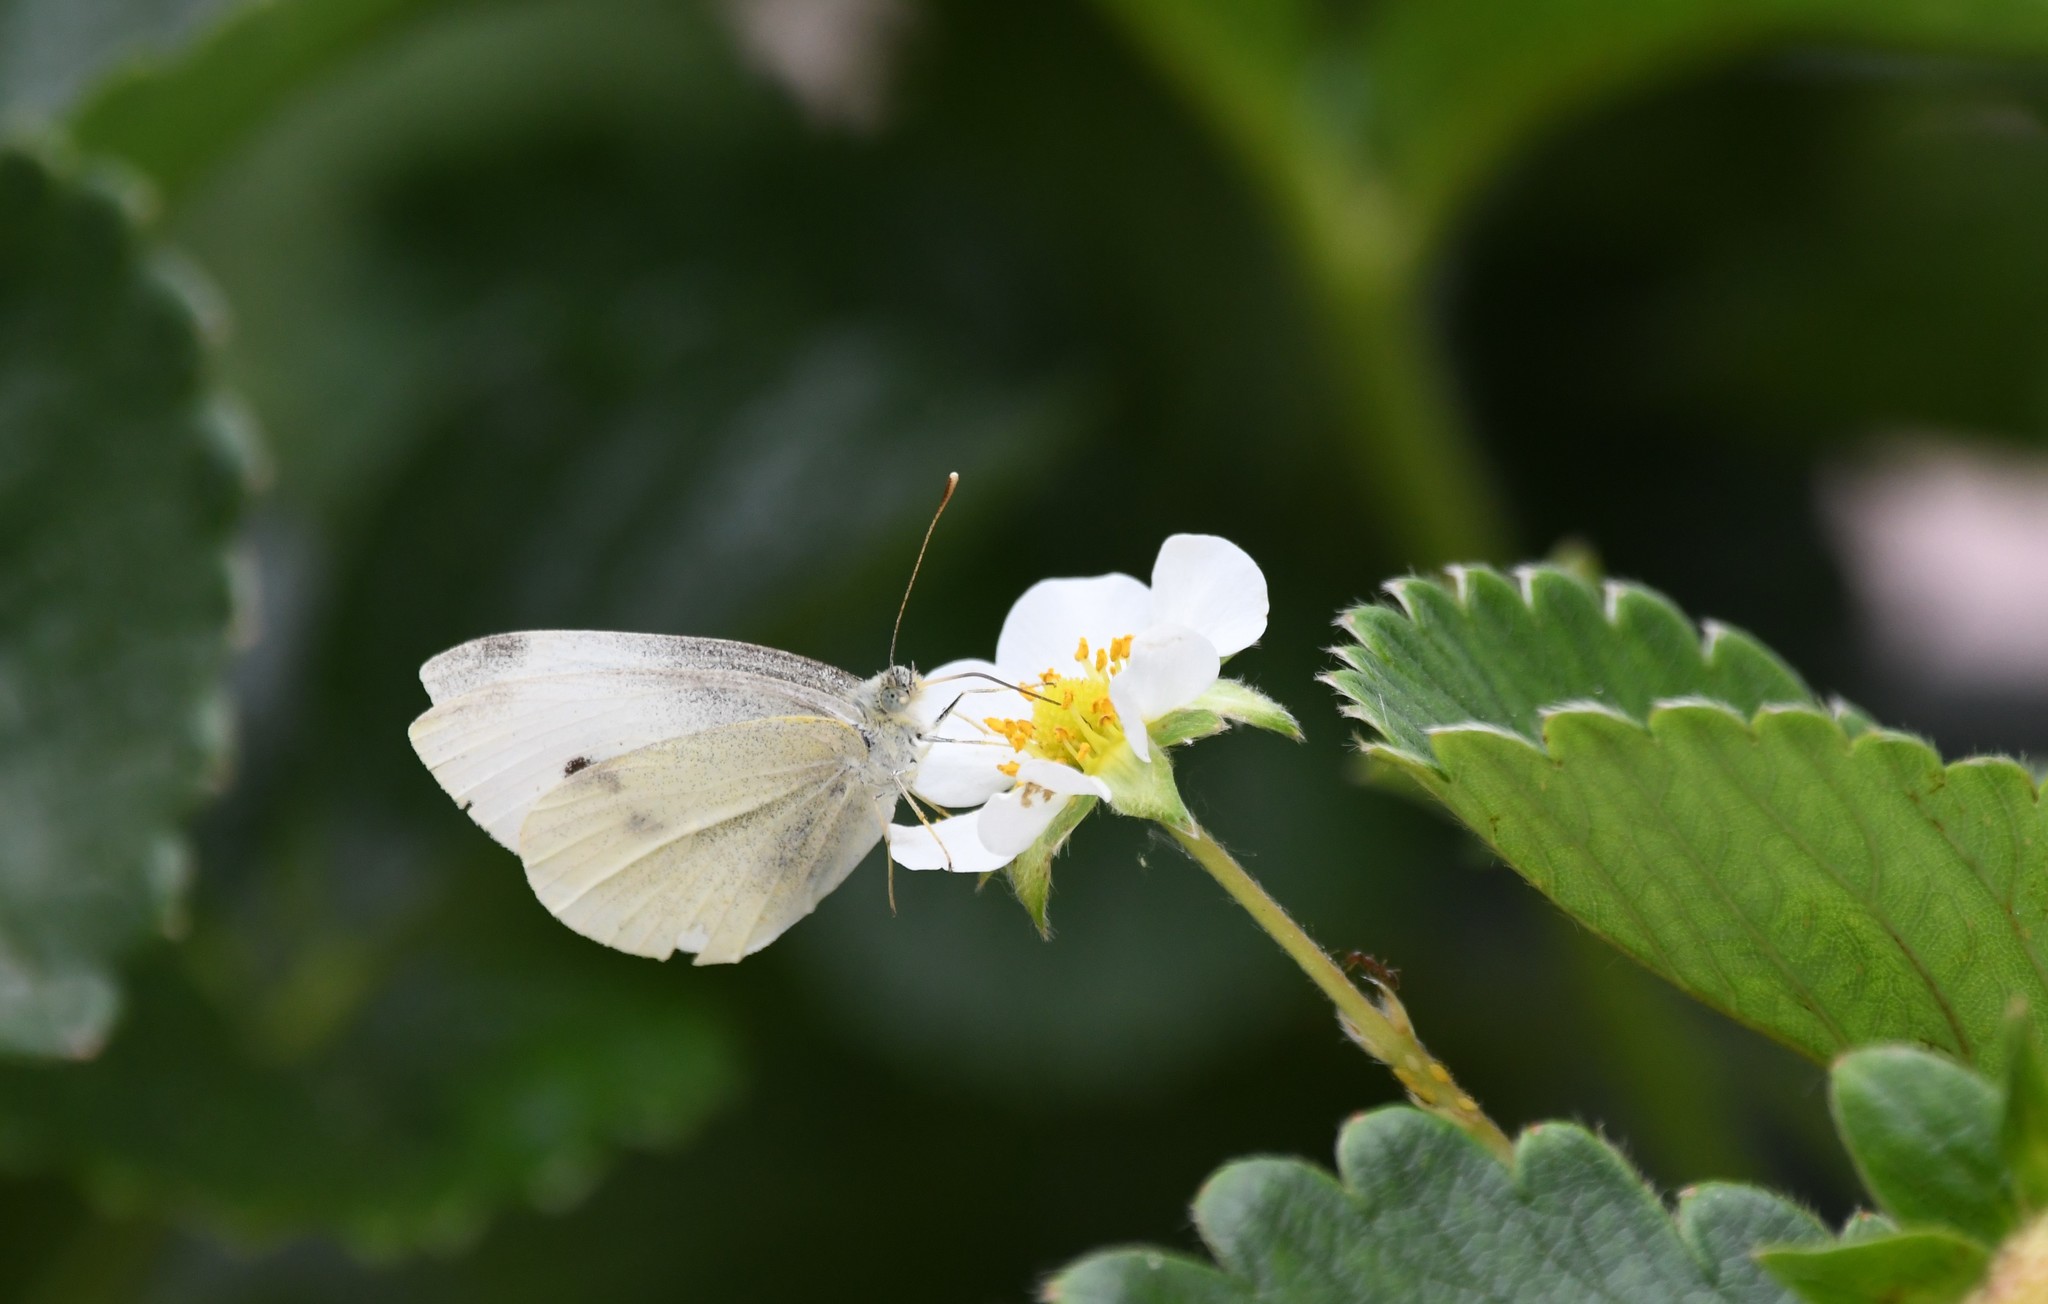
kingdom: Animalia
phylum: Arthropoda
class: Insecta
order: Lepidoptera
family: Pieridae
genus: Pieris
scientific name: Pieris rapae
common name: Small white
